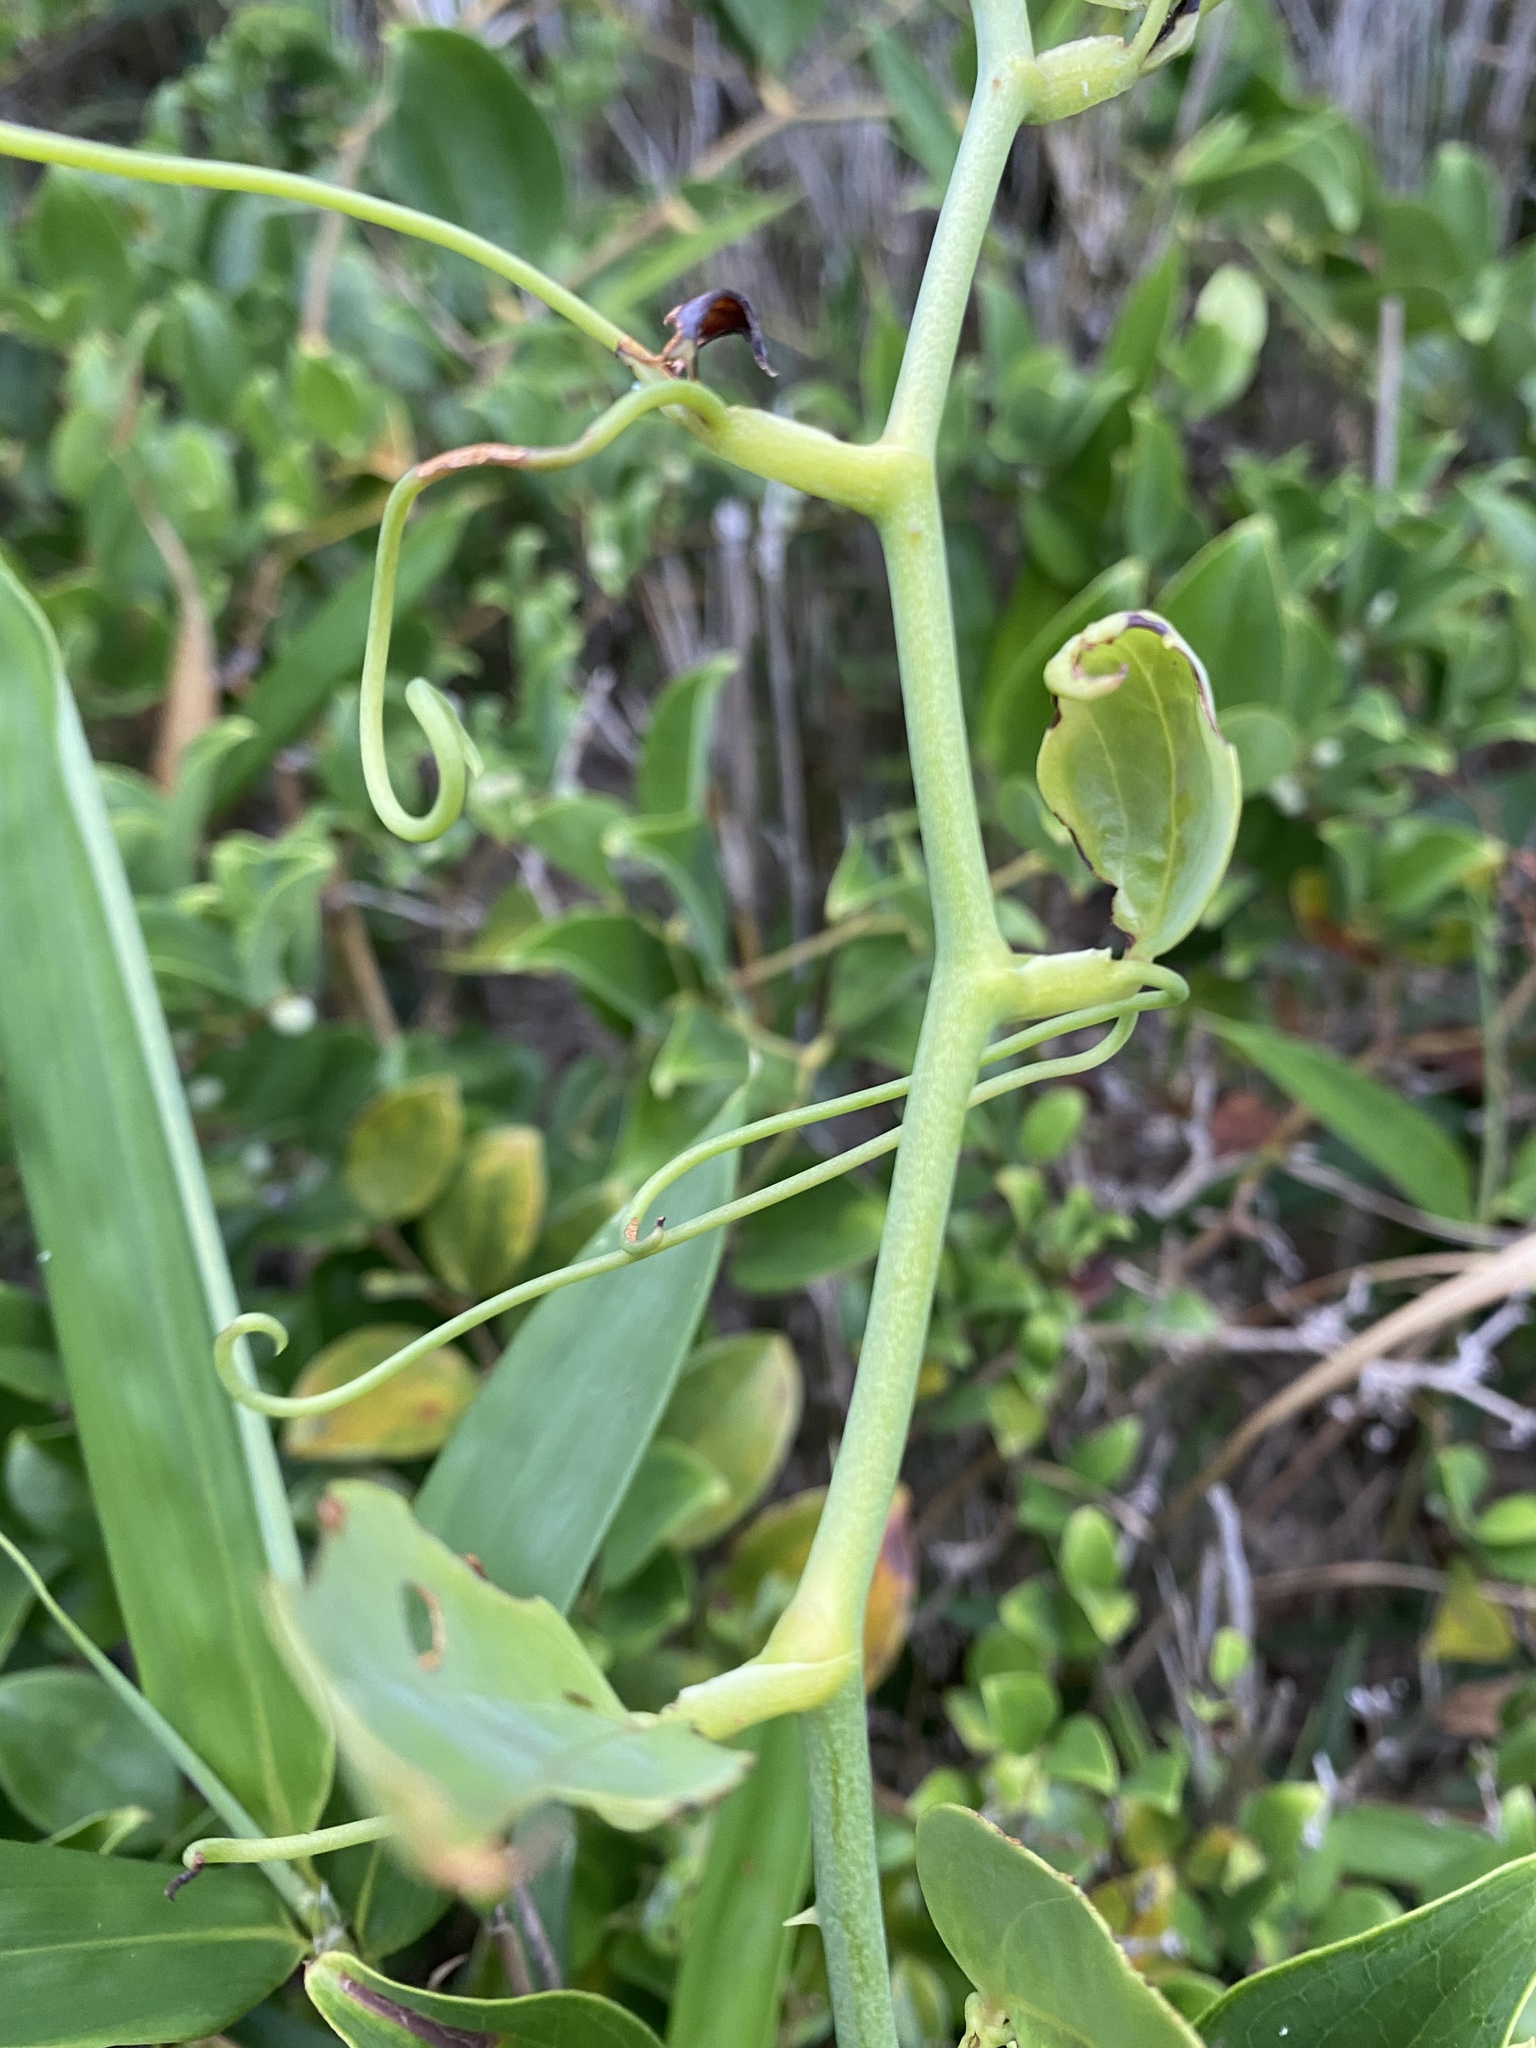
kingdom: Plantae
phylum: Tracheophyta
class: Liliopsida
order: Liliales
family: Smilacaceae
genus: Smilax
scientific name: Smilax china
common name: Chinaroot
